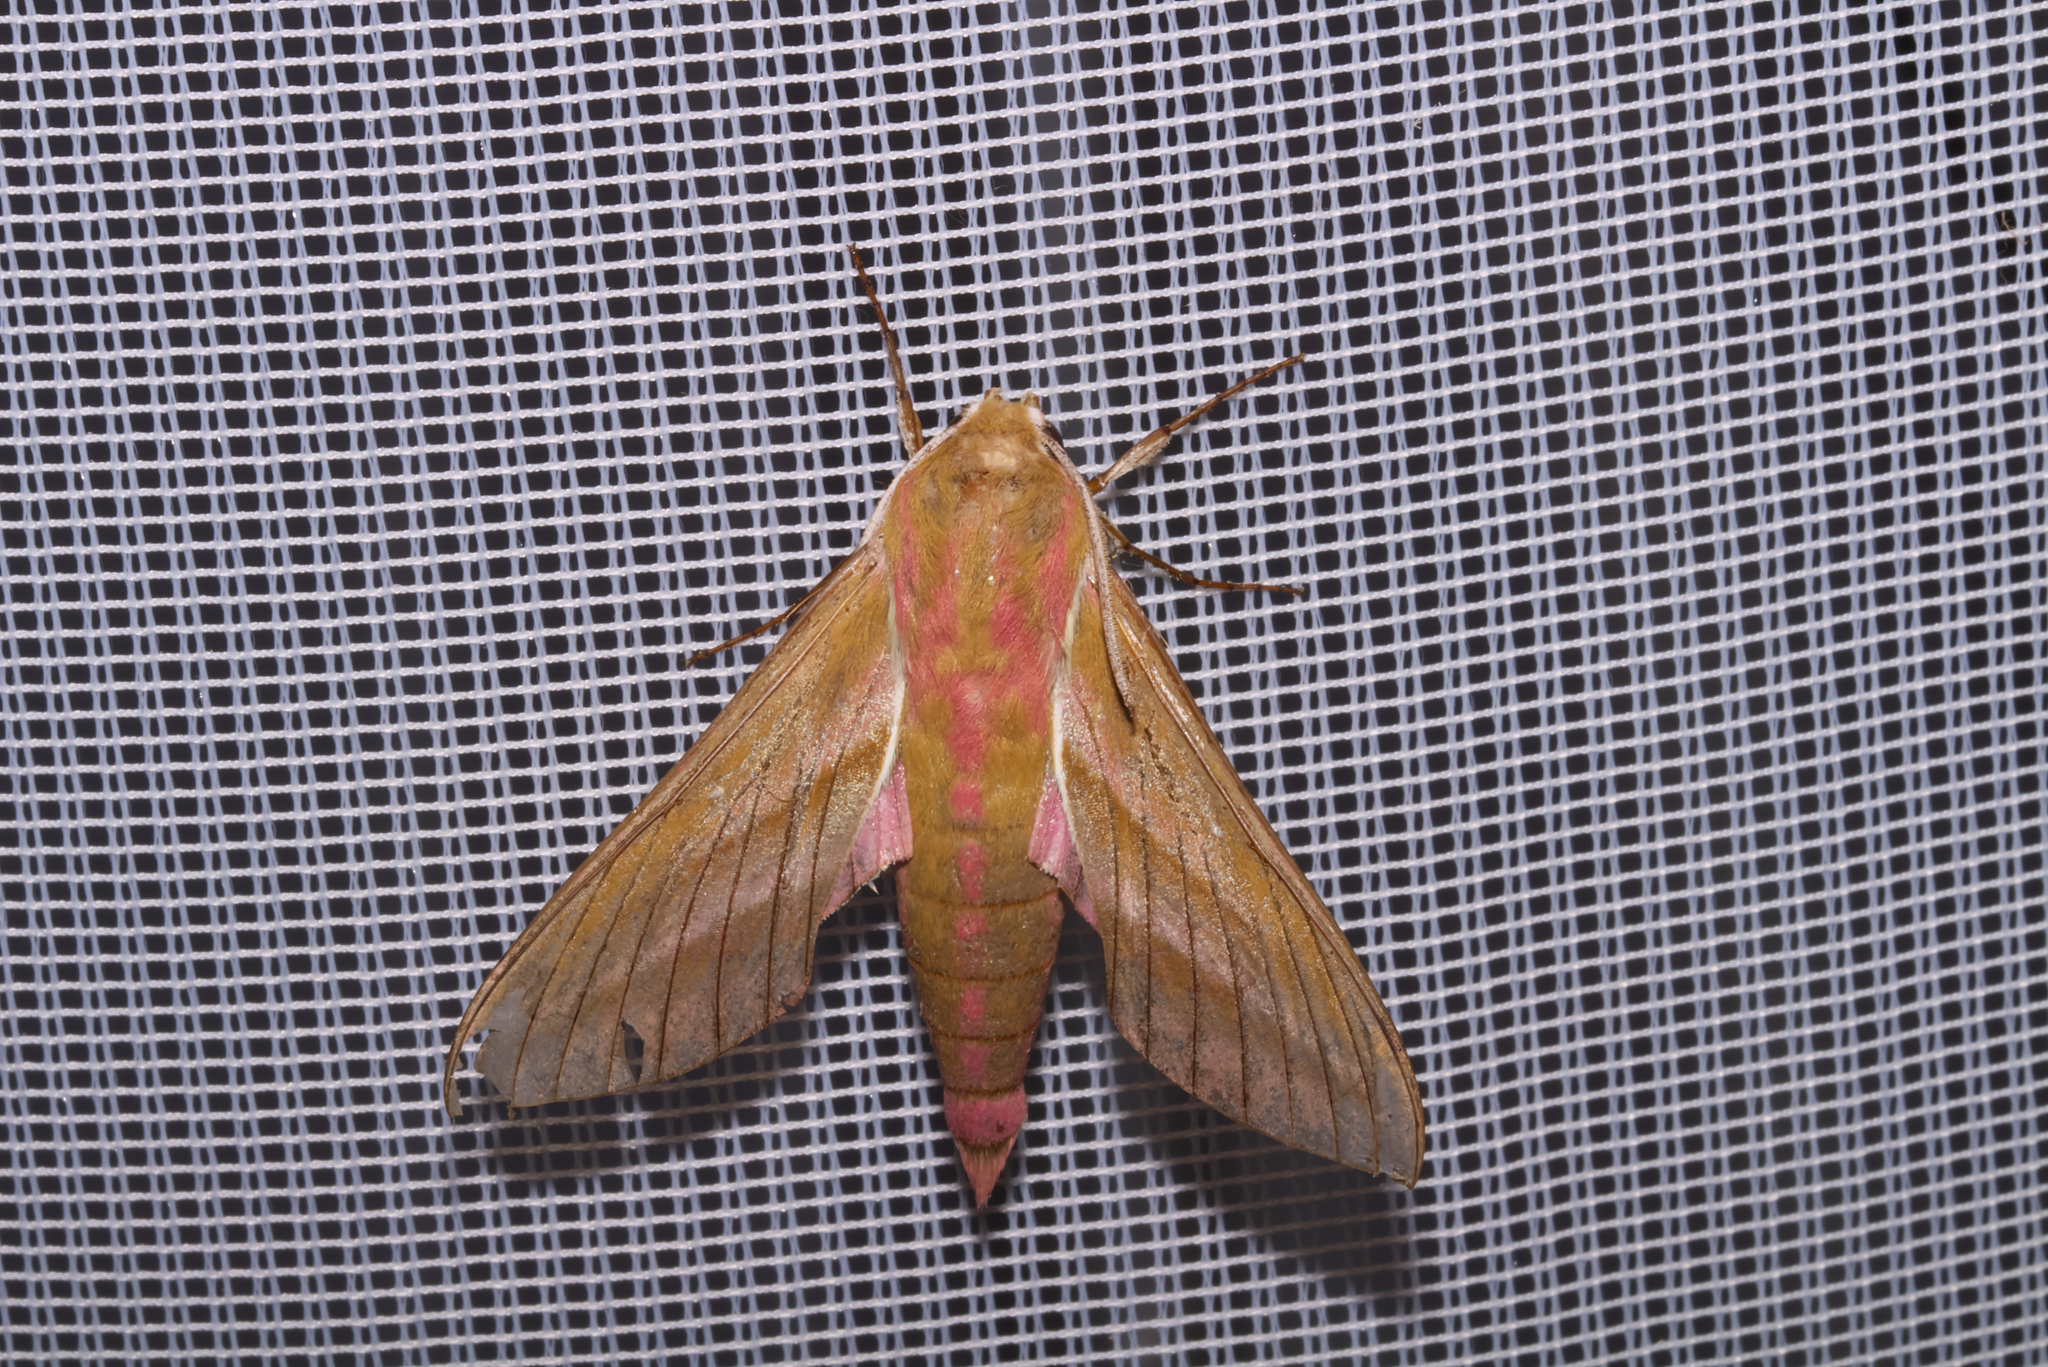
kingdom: Animalia
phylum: Arthropoda
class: Insecta
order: Lepidoptera
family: Sphingidae
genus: Deilephila
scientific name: Deilephila elpenor
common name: Elephant hawk-moth
